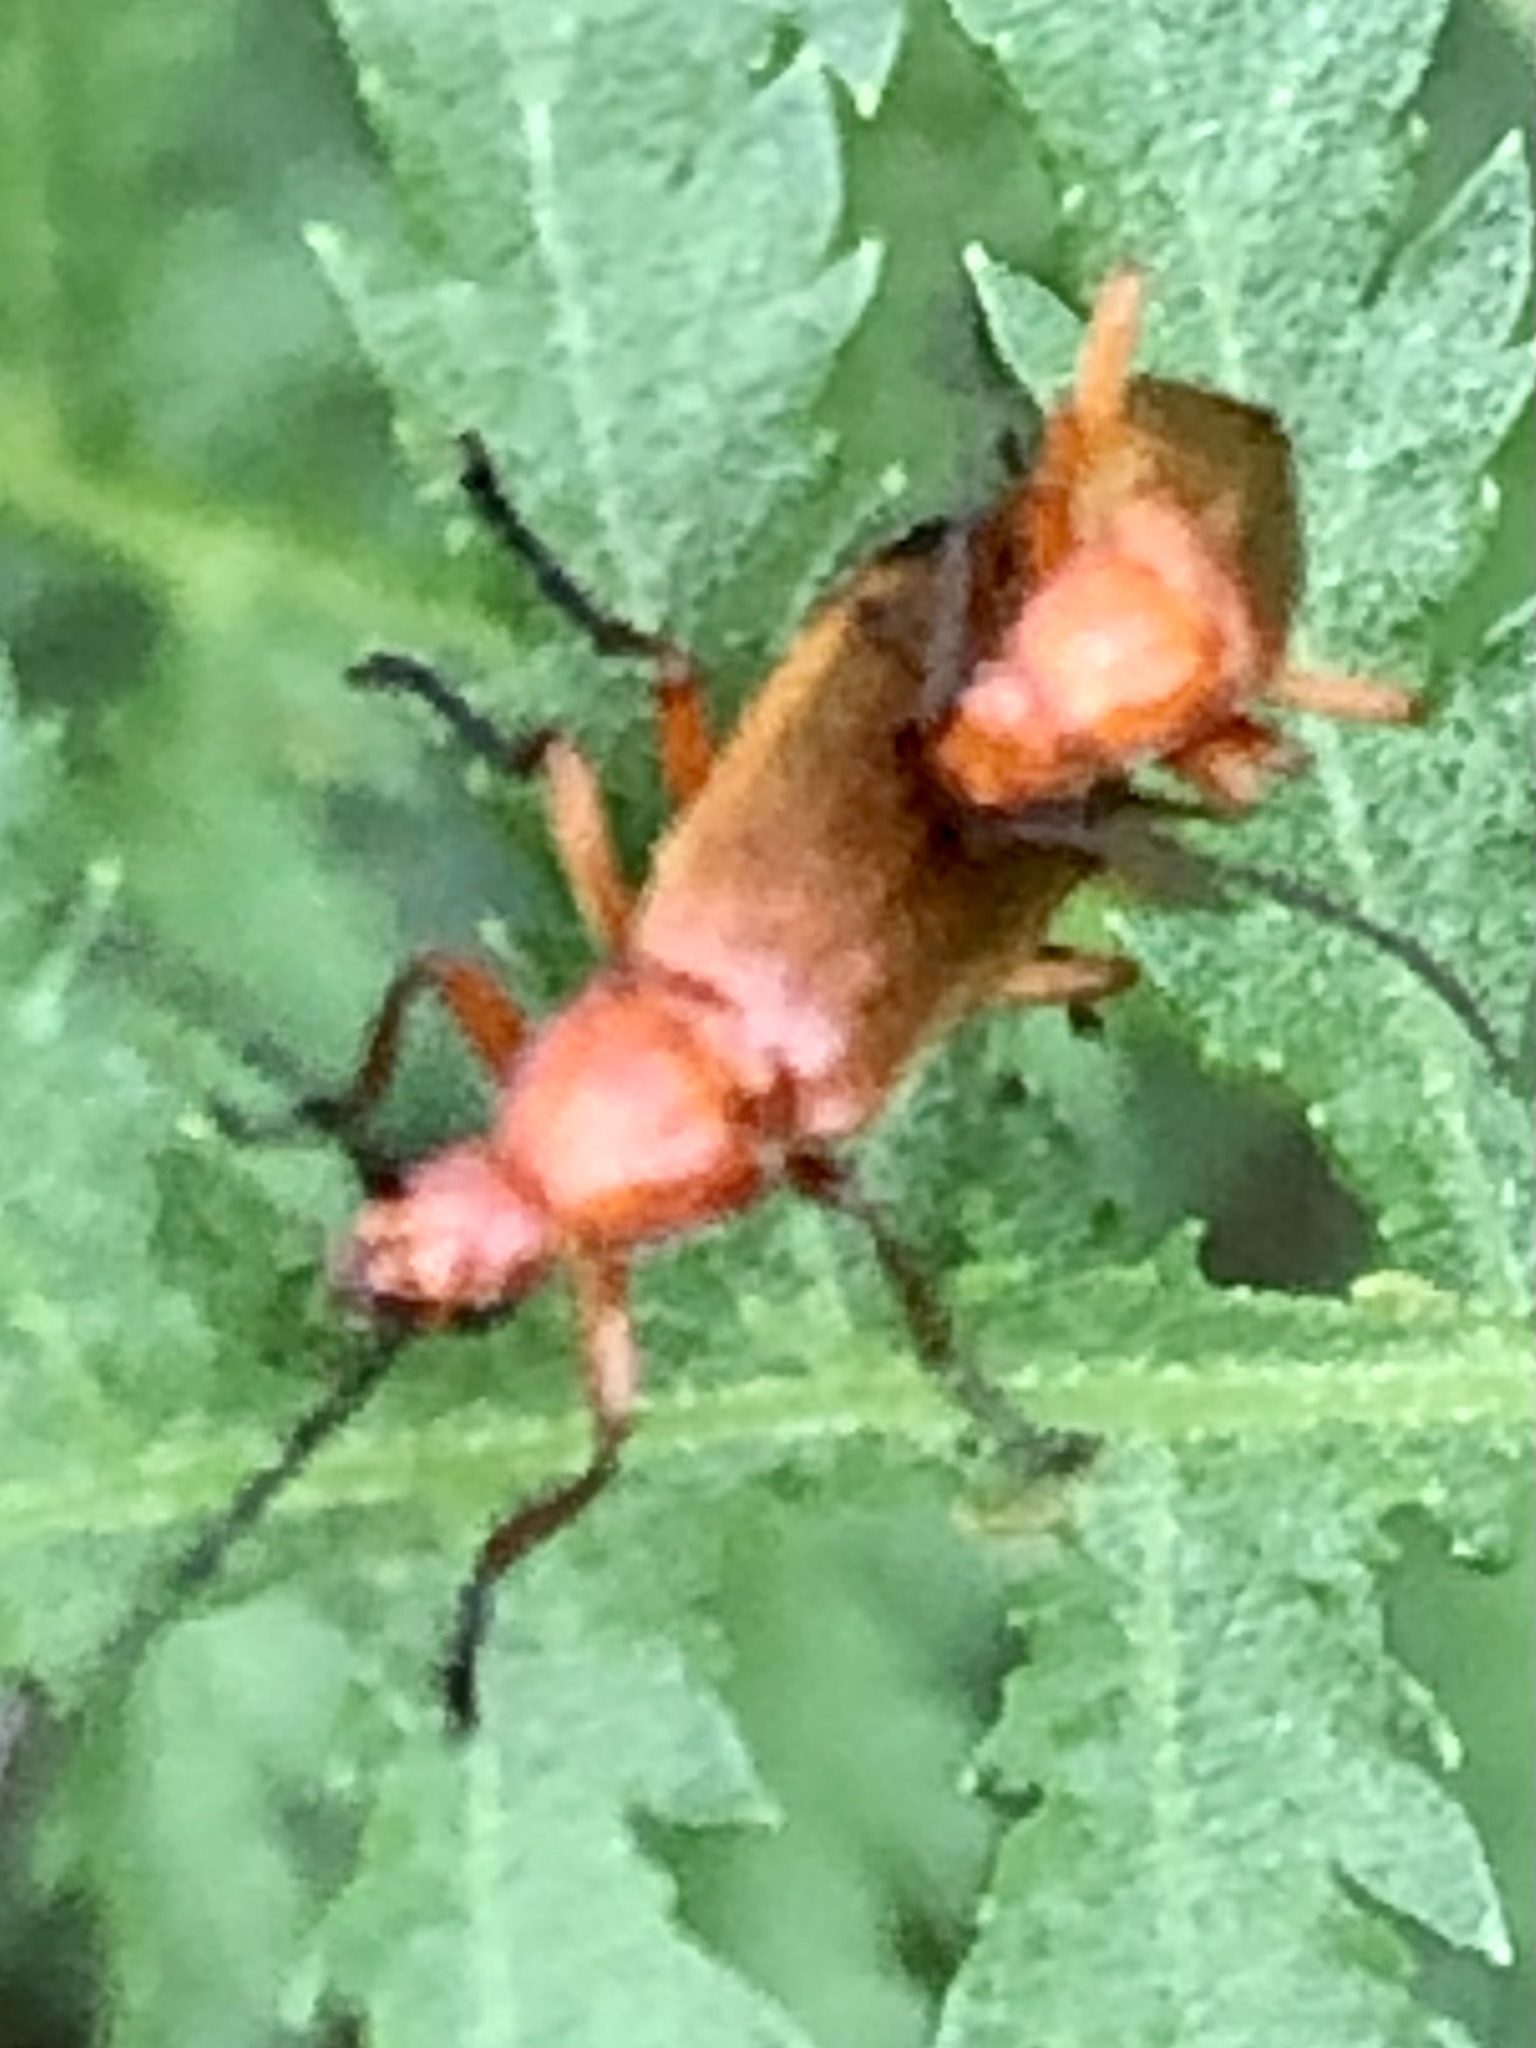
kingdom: Animalia
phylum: Arthropoda
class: Insecta
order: Coleoptera
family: Cantharidae
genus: Rhagonycha
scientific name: Rhagonycha fulva
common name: Common red soldier beetle
